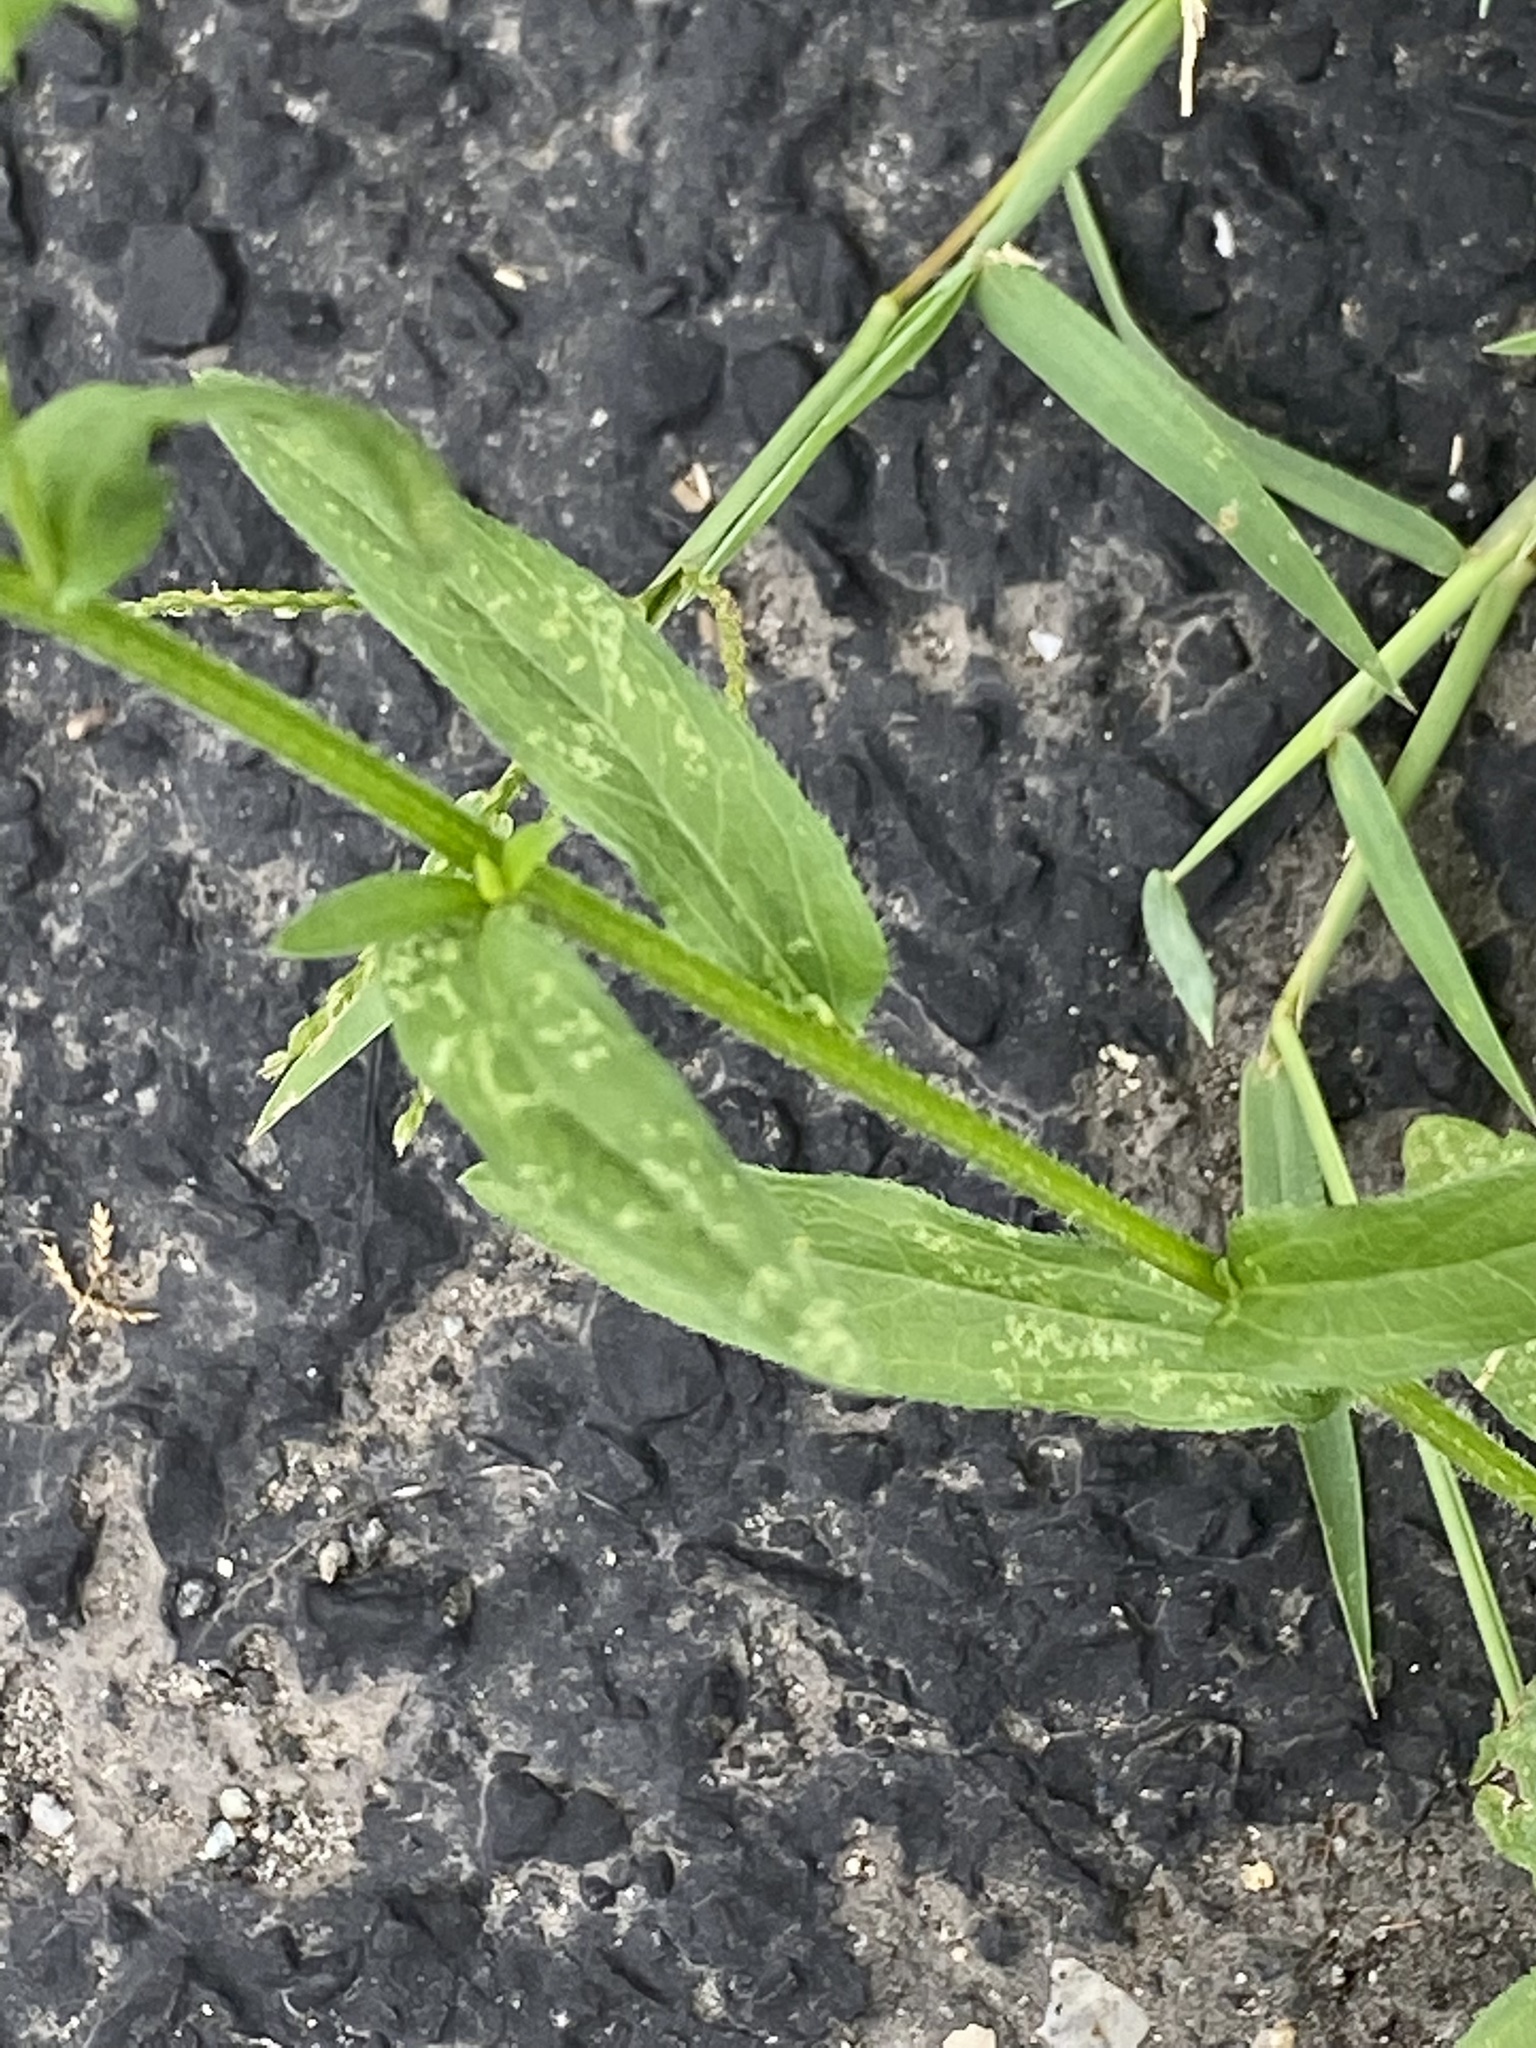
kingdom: Plantae
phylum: Tracheophyta
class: Magnoliopsida
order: Asterales
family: Asteraceae
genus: Erigeron
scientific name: Erigeron annuus
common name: Tall fleabane
